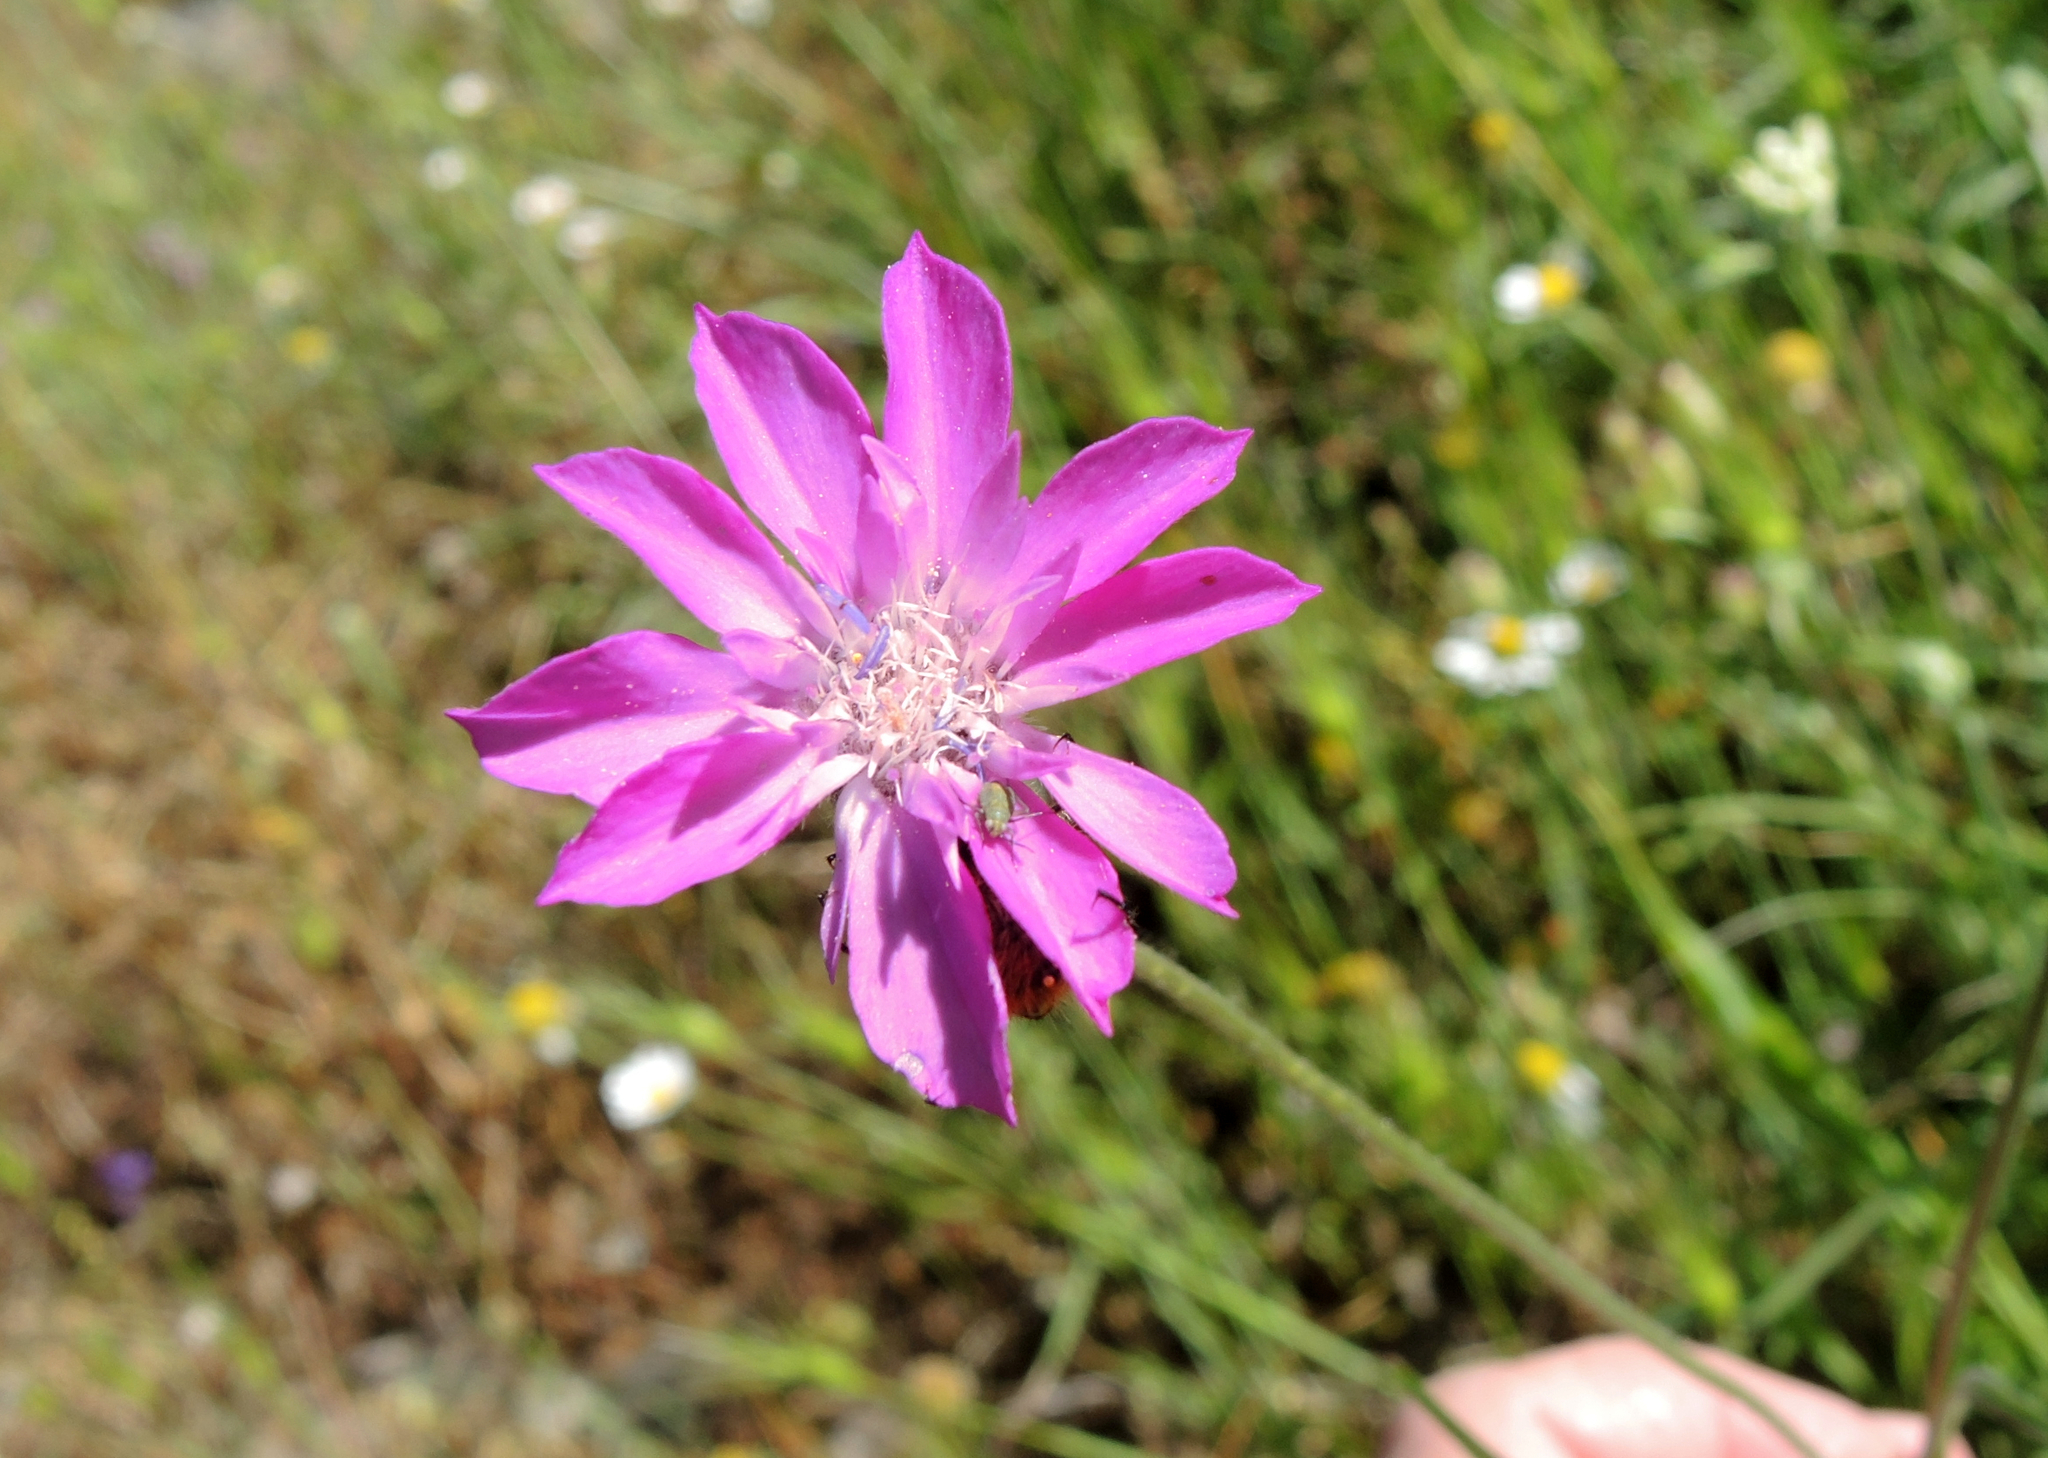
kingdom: Plantae
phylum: Tracheophyta
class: Magnoliopsida
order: Dipsacales
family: Caprifoliaceae
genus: Knautia
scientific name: Knautia orientalis
